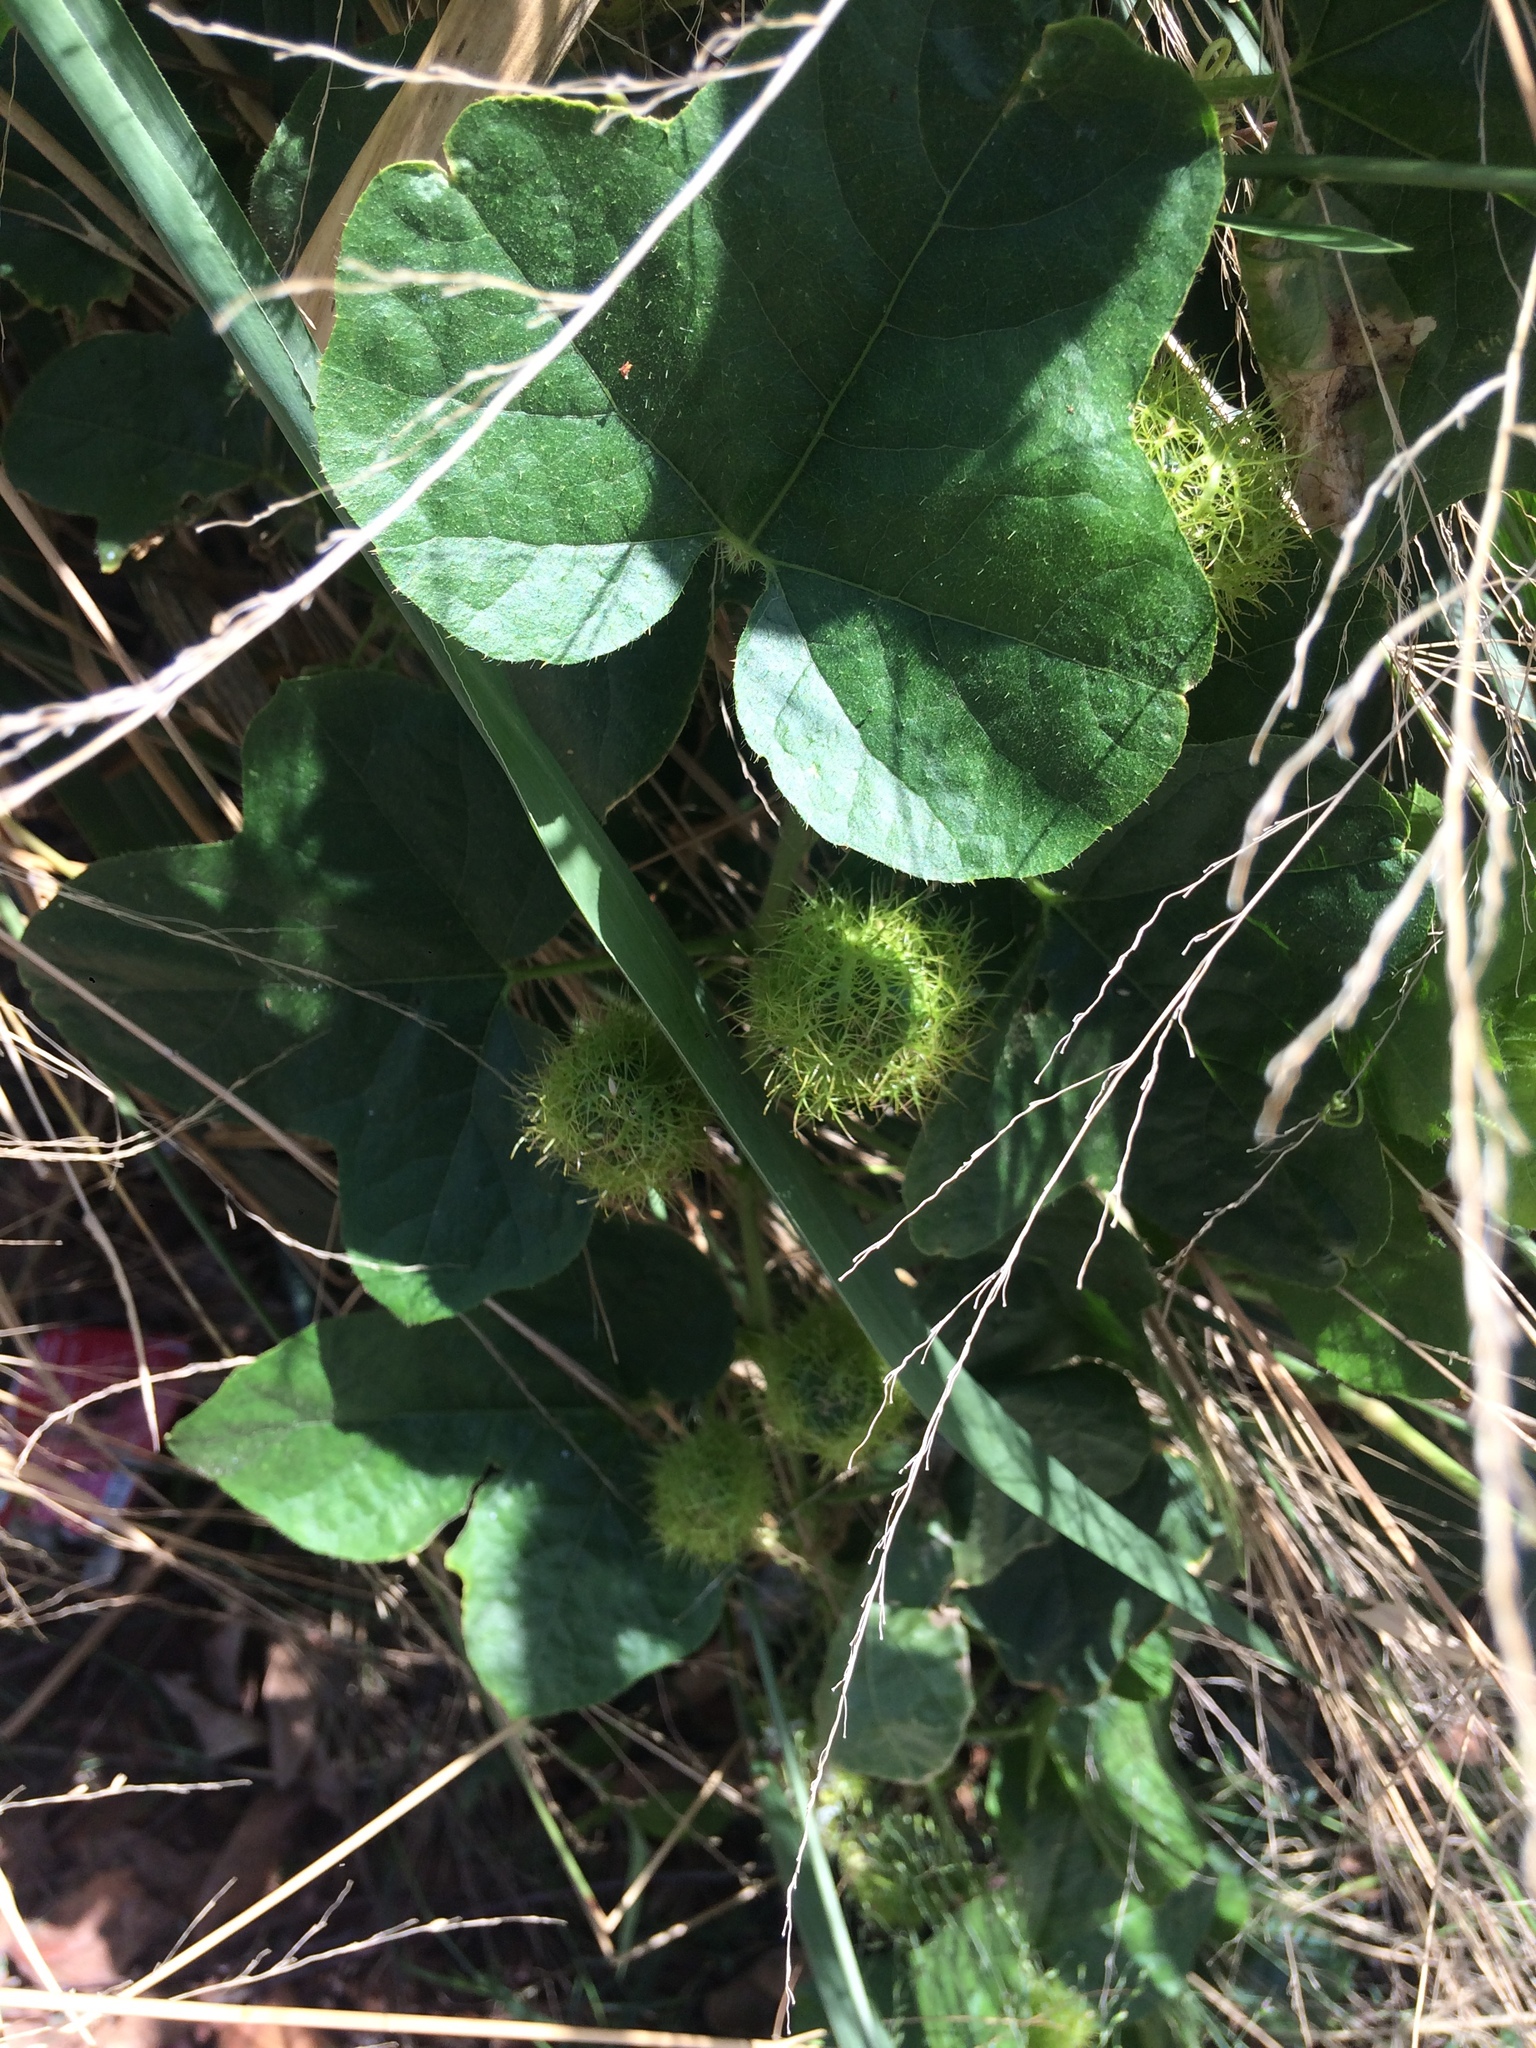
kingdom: Plantae
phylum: Tracheophyta
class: Magnoliopsida
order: Malpighiales
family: Passifloraceae
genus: Passiflora
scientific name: Passiflora vesicaria
